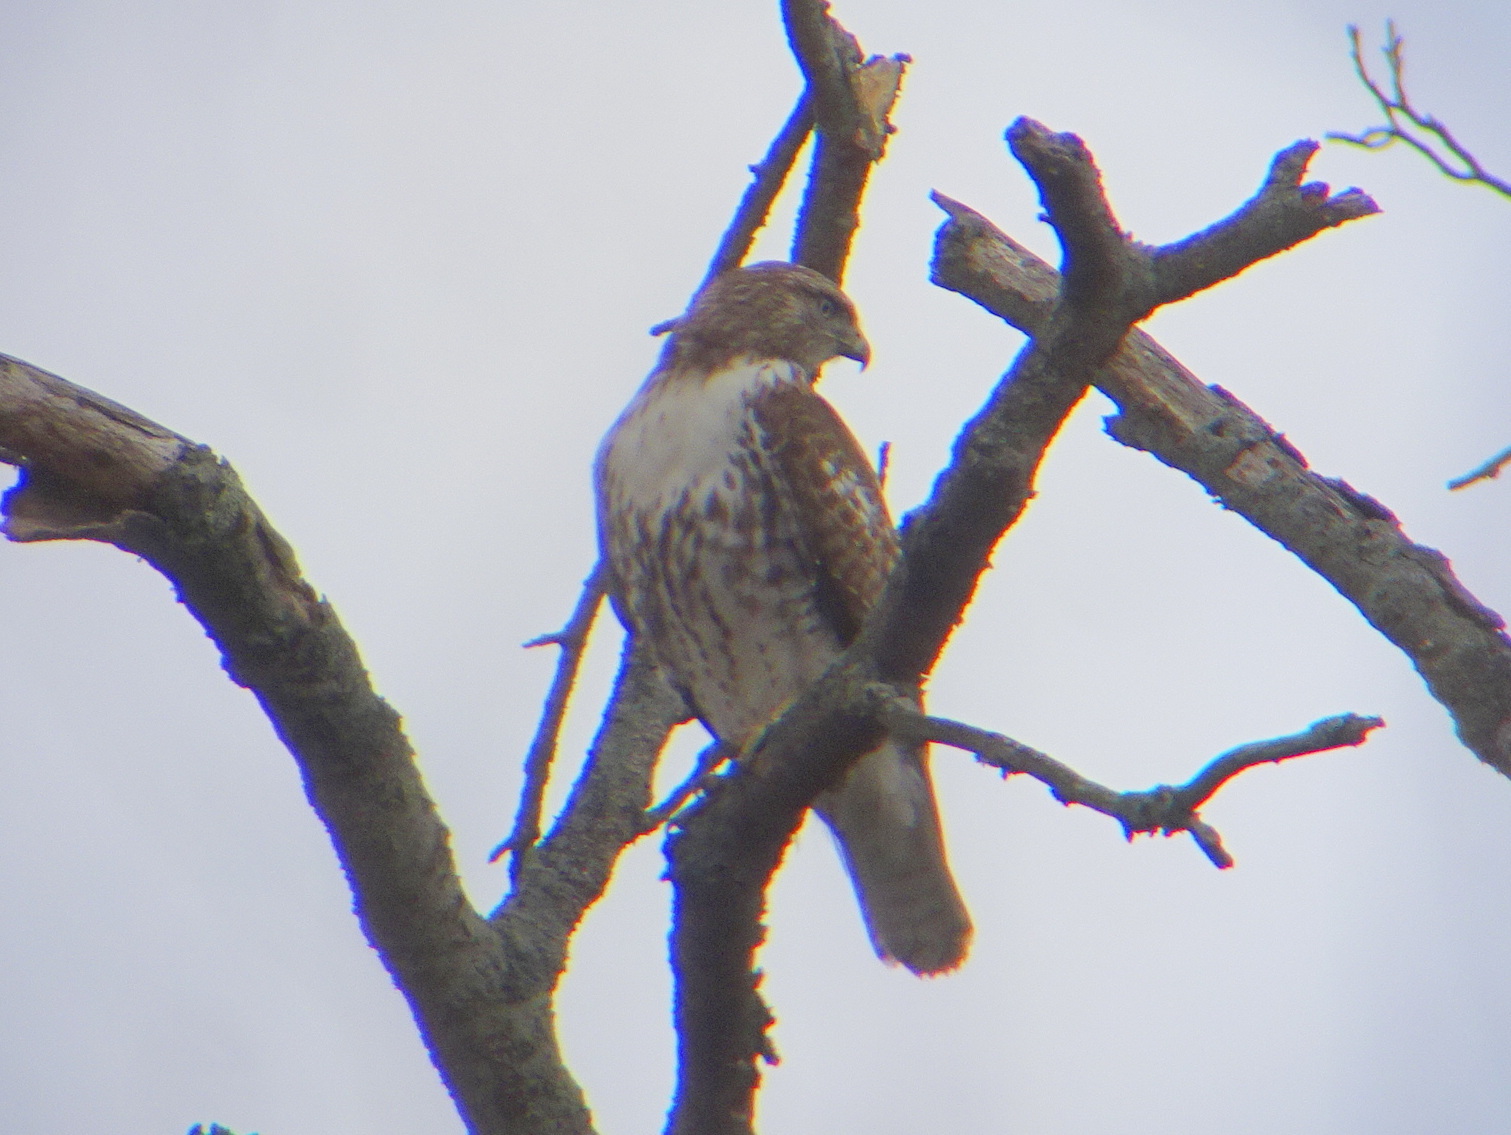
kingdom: Animalia
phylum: Chordata
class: Aves
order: Accipitriformes
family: Accipitridae
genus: Buteo
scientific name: Buteo jamaicensis
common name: Red-tailed hawk
